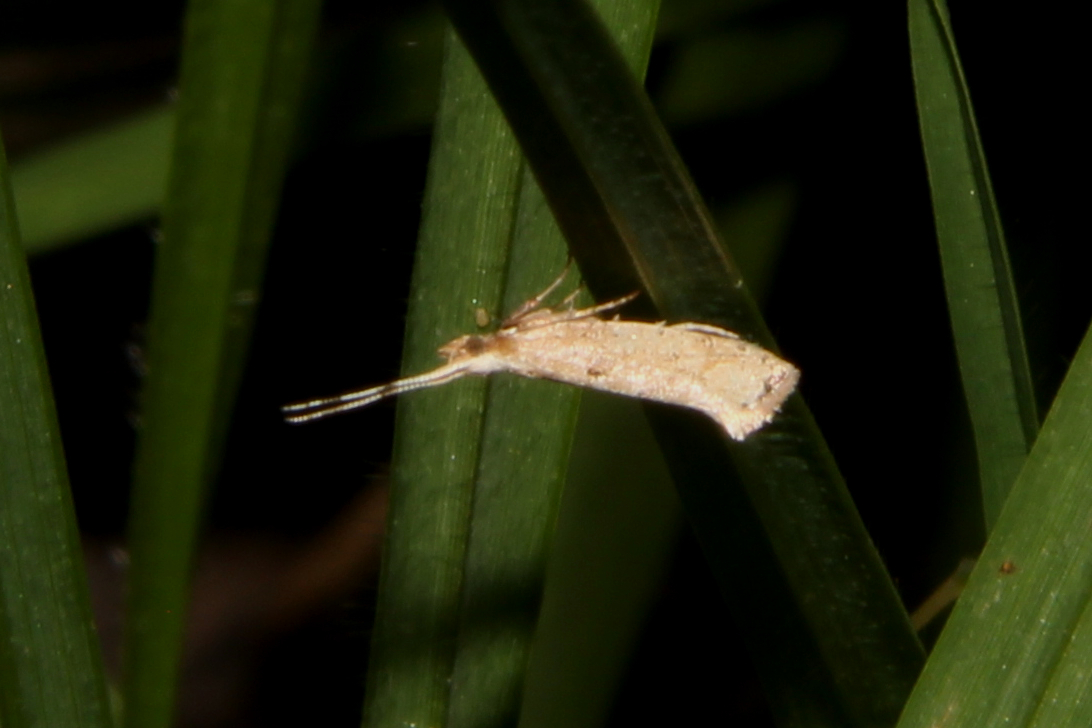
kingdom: Animalia
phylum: Arthropoda
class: Insecta
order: Lepidoptera
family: Plutellidae
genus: Leuroperna
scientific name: Leuroperna sera
